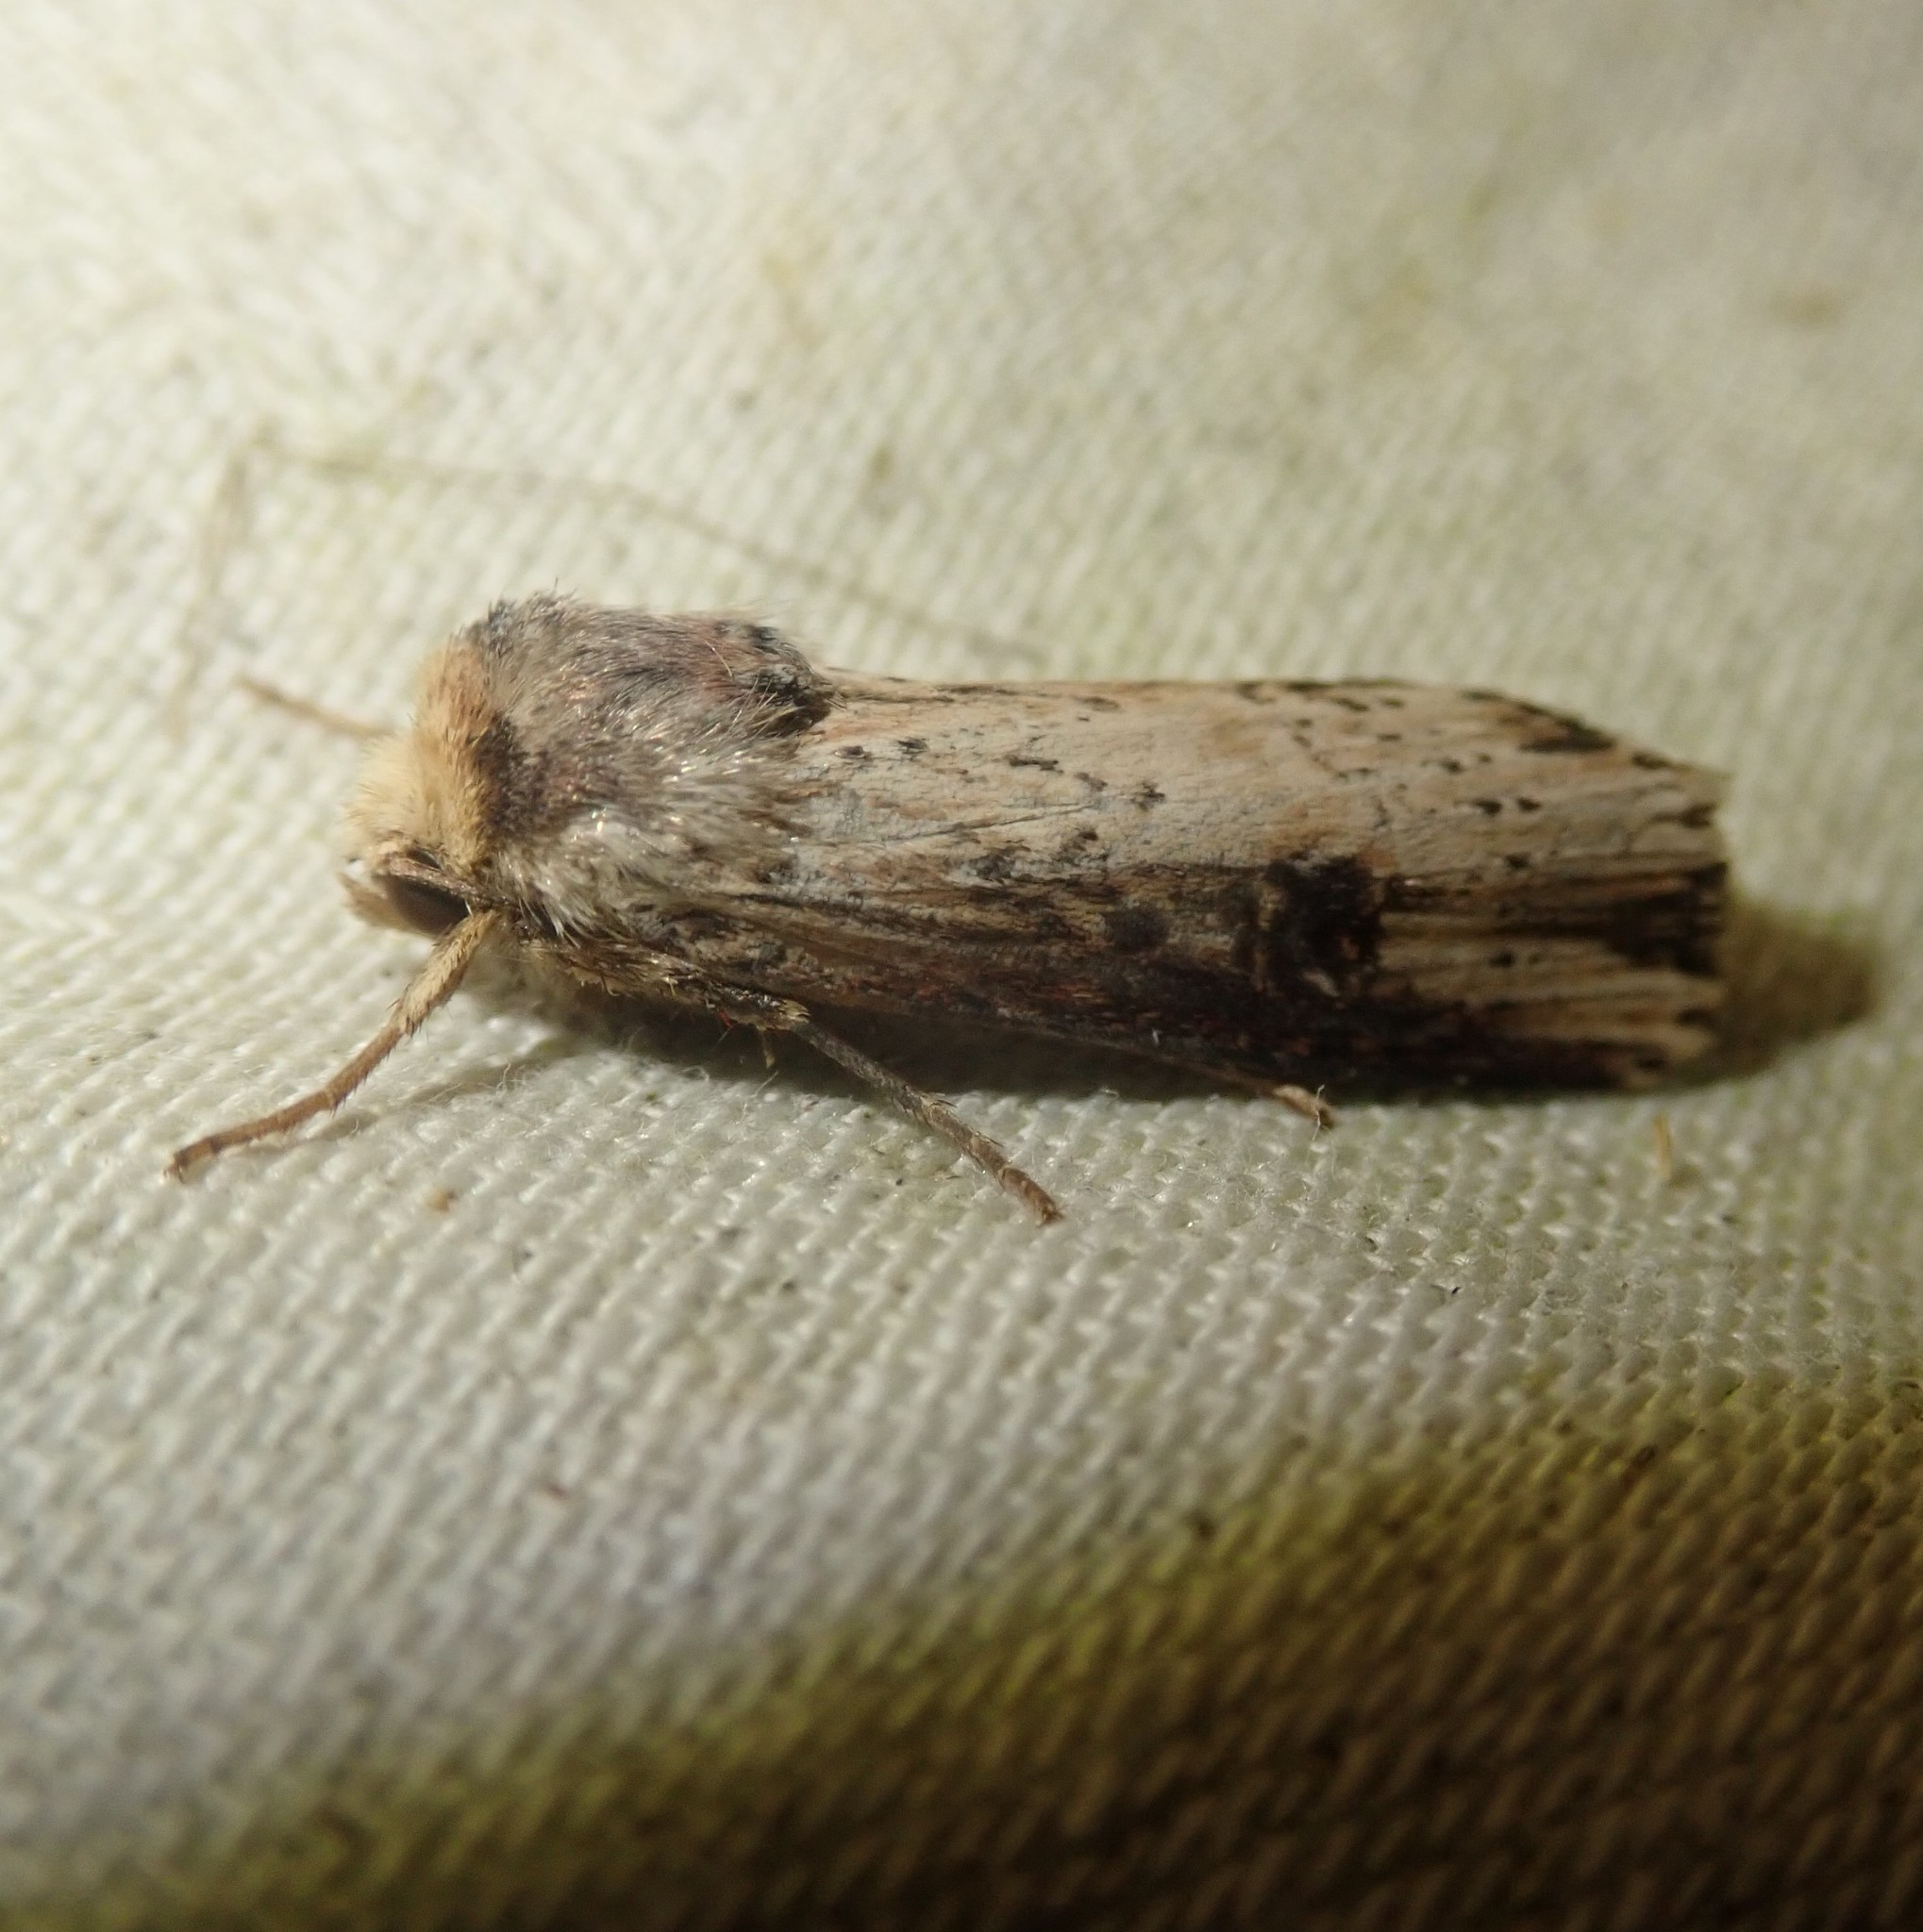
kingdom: Animalia
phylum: Arthropoda
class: Insecta
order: Lepidoptera
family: Noctuidae
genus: Axylia
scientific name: Axylia putris
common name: Flame
